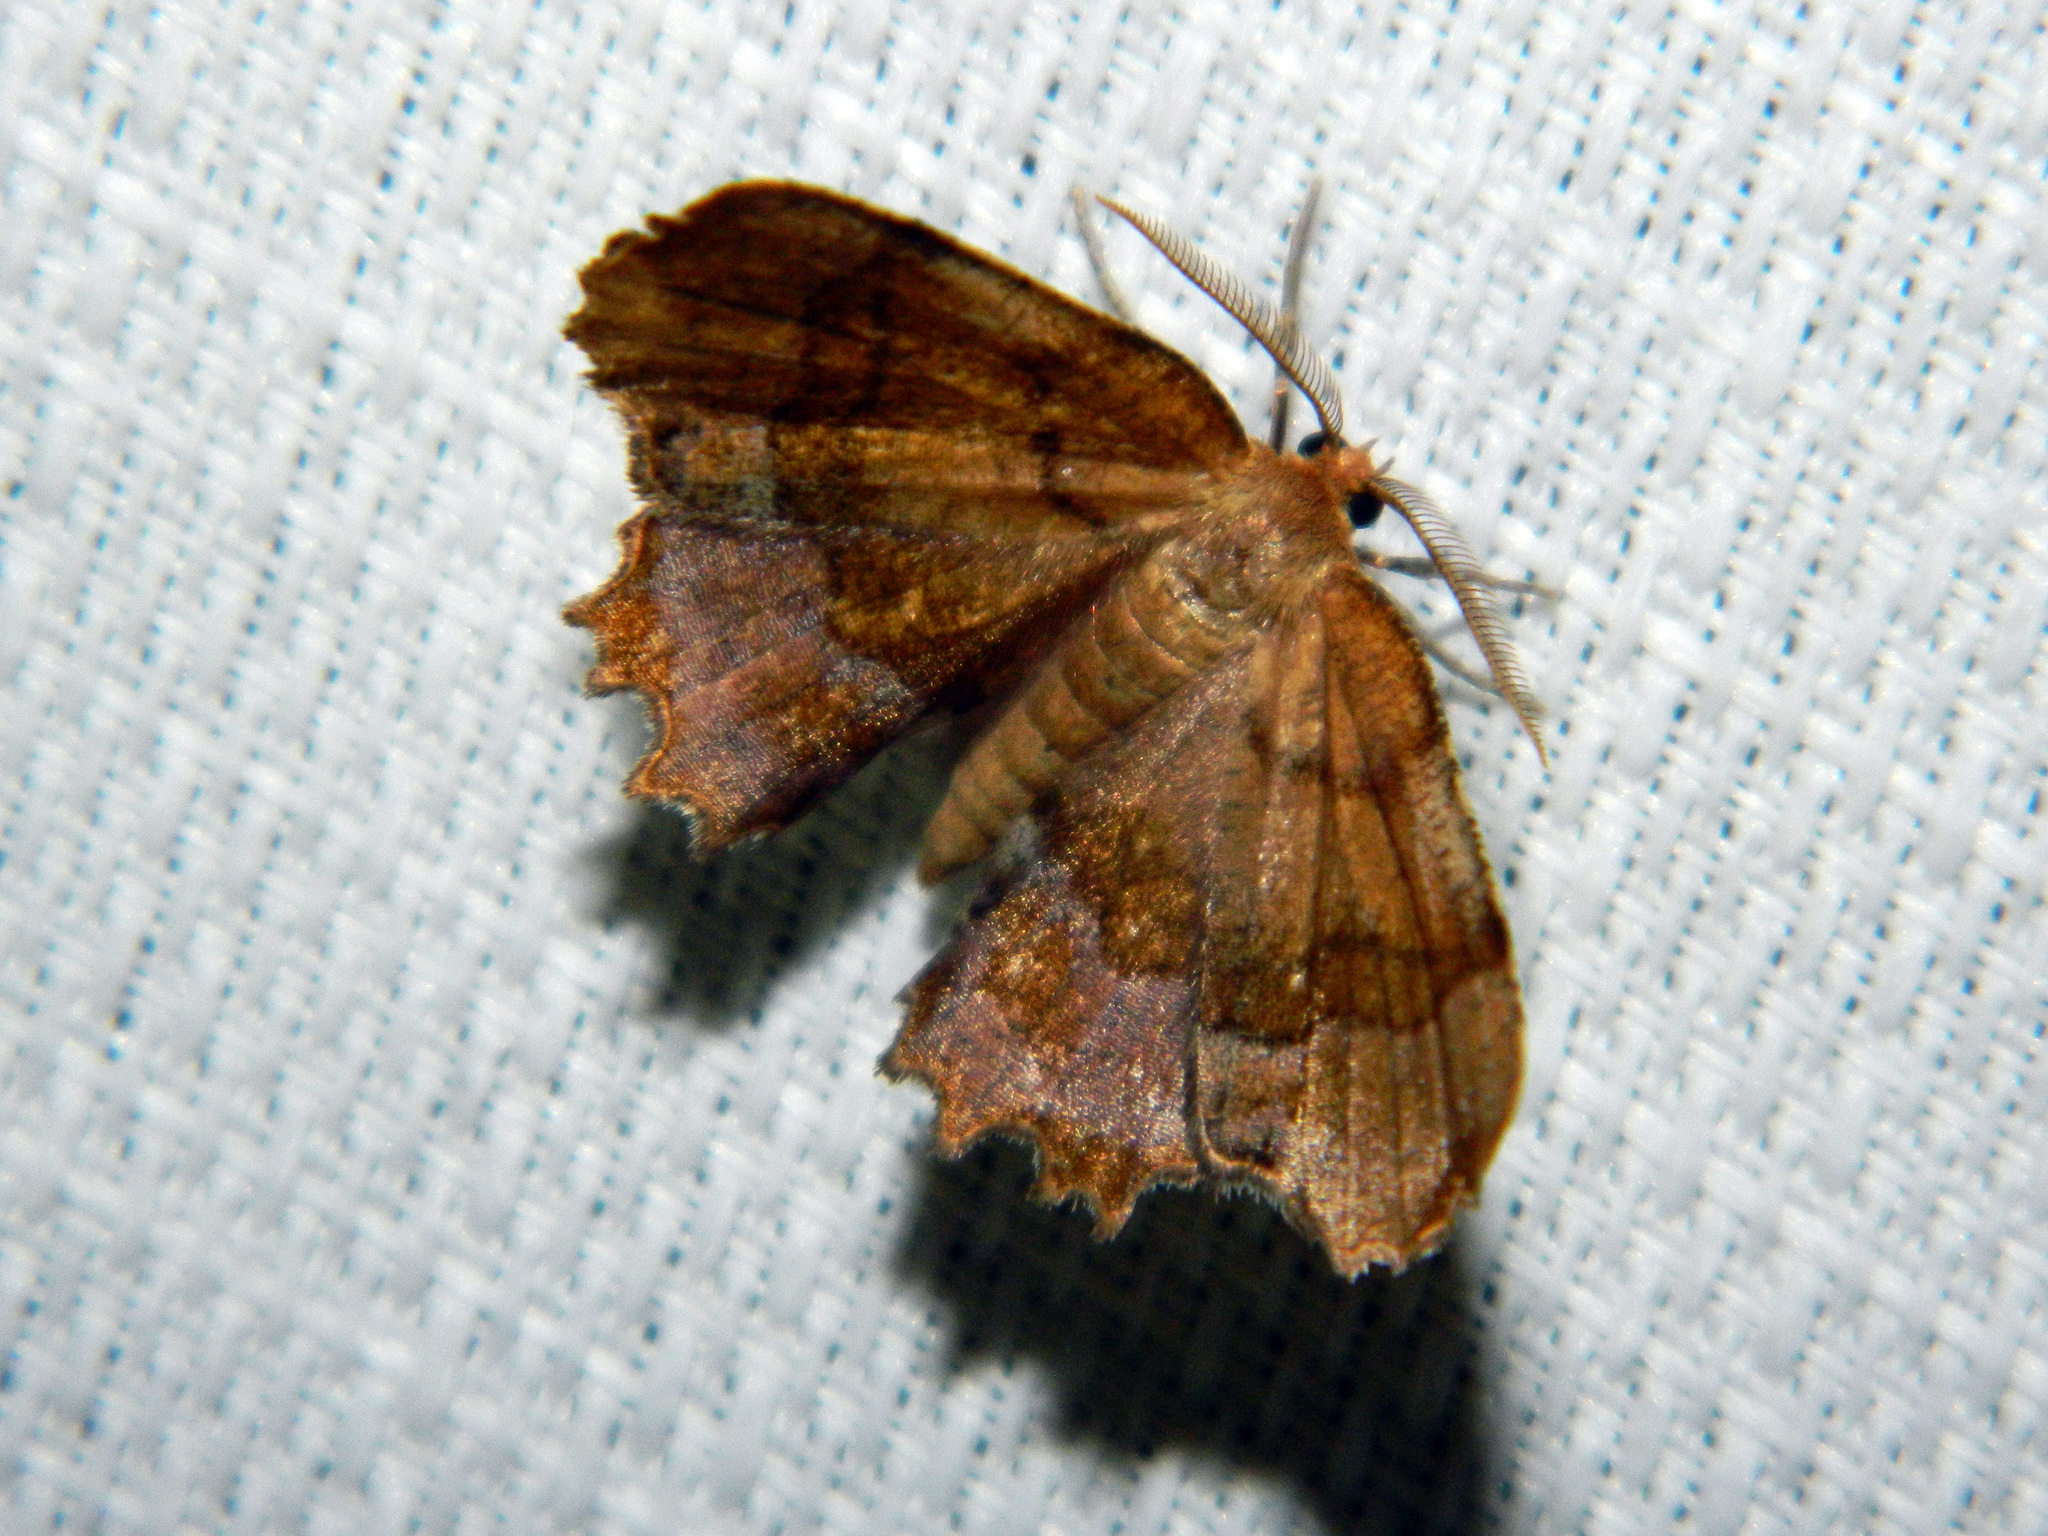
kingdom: Animalia
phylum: Arthropoda
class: Insecta
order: Lepidoptera
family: Geometridae
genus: Cepphis
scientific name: Cepphis armataria
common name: Scallop moth
